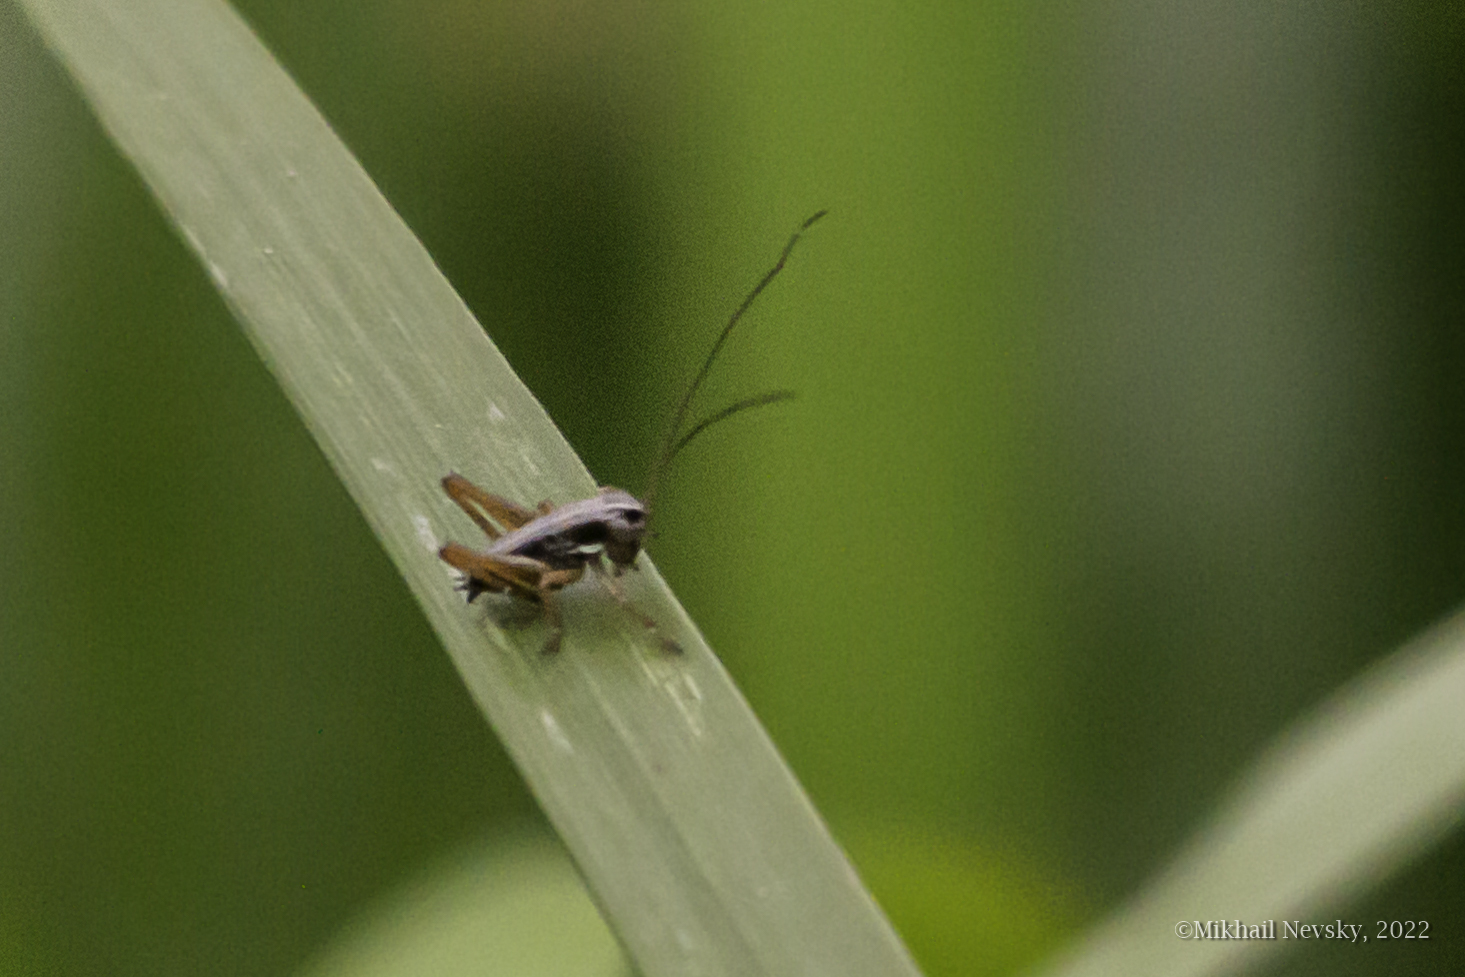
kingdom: Animalia
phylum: Arthropoda
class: Insecta
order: Orthoptera
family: Tettigoniidae
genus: Roeseliana
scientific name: Roeseliana roeselii
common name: Roesel's bush cricket
